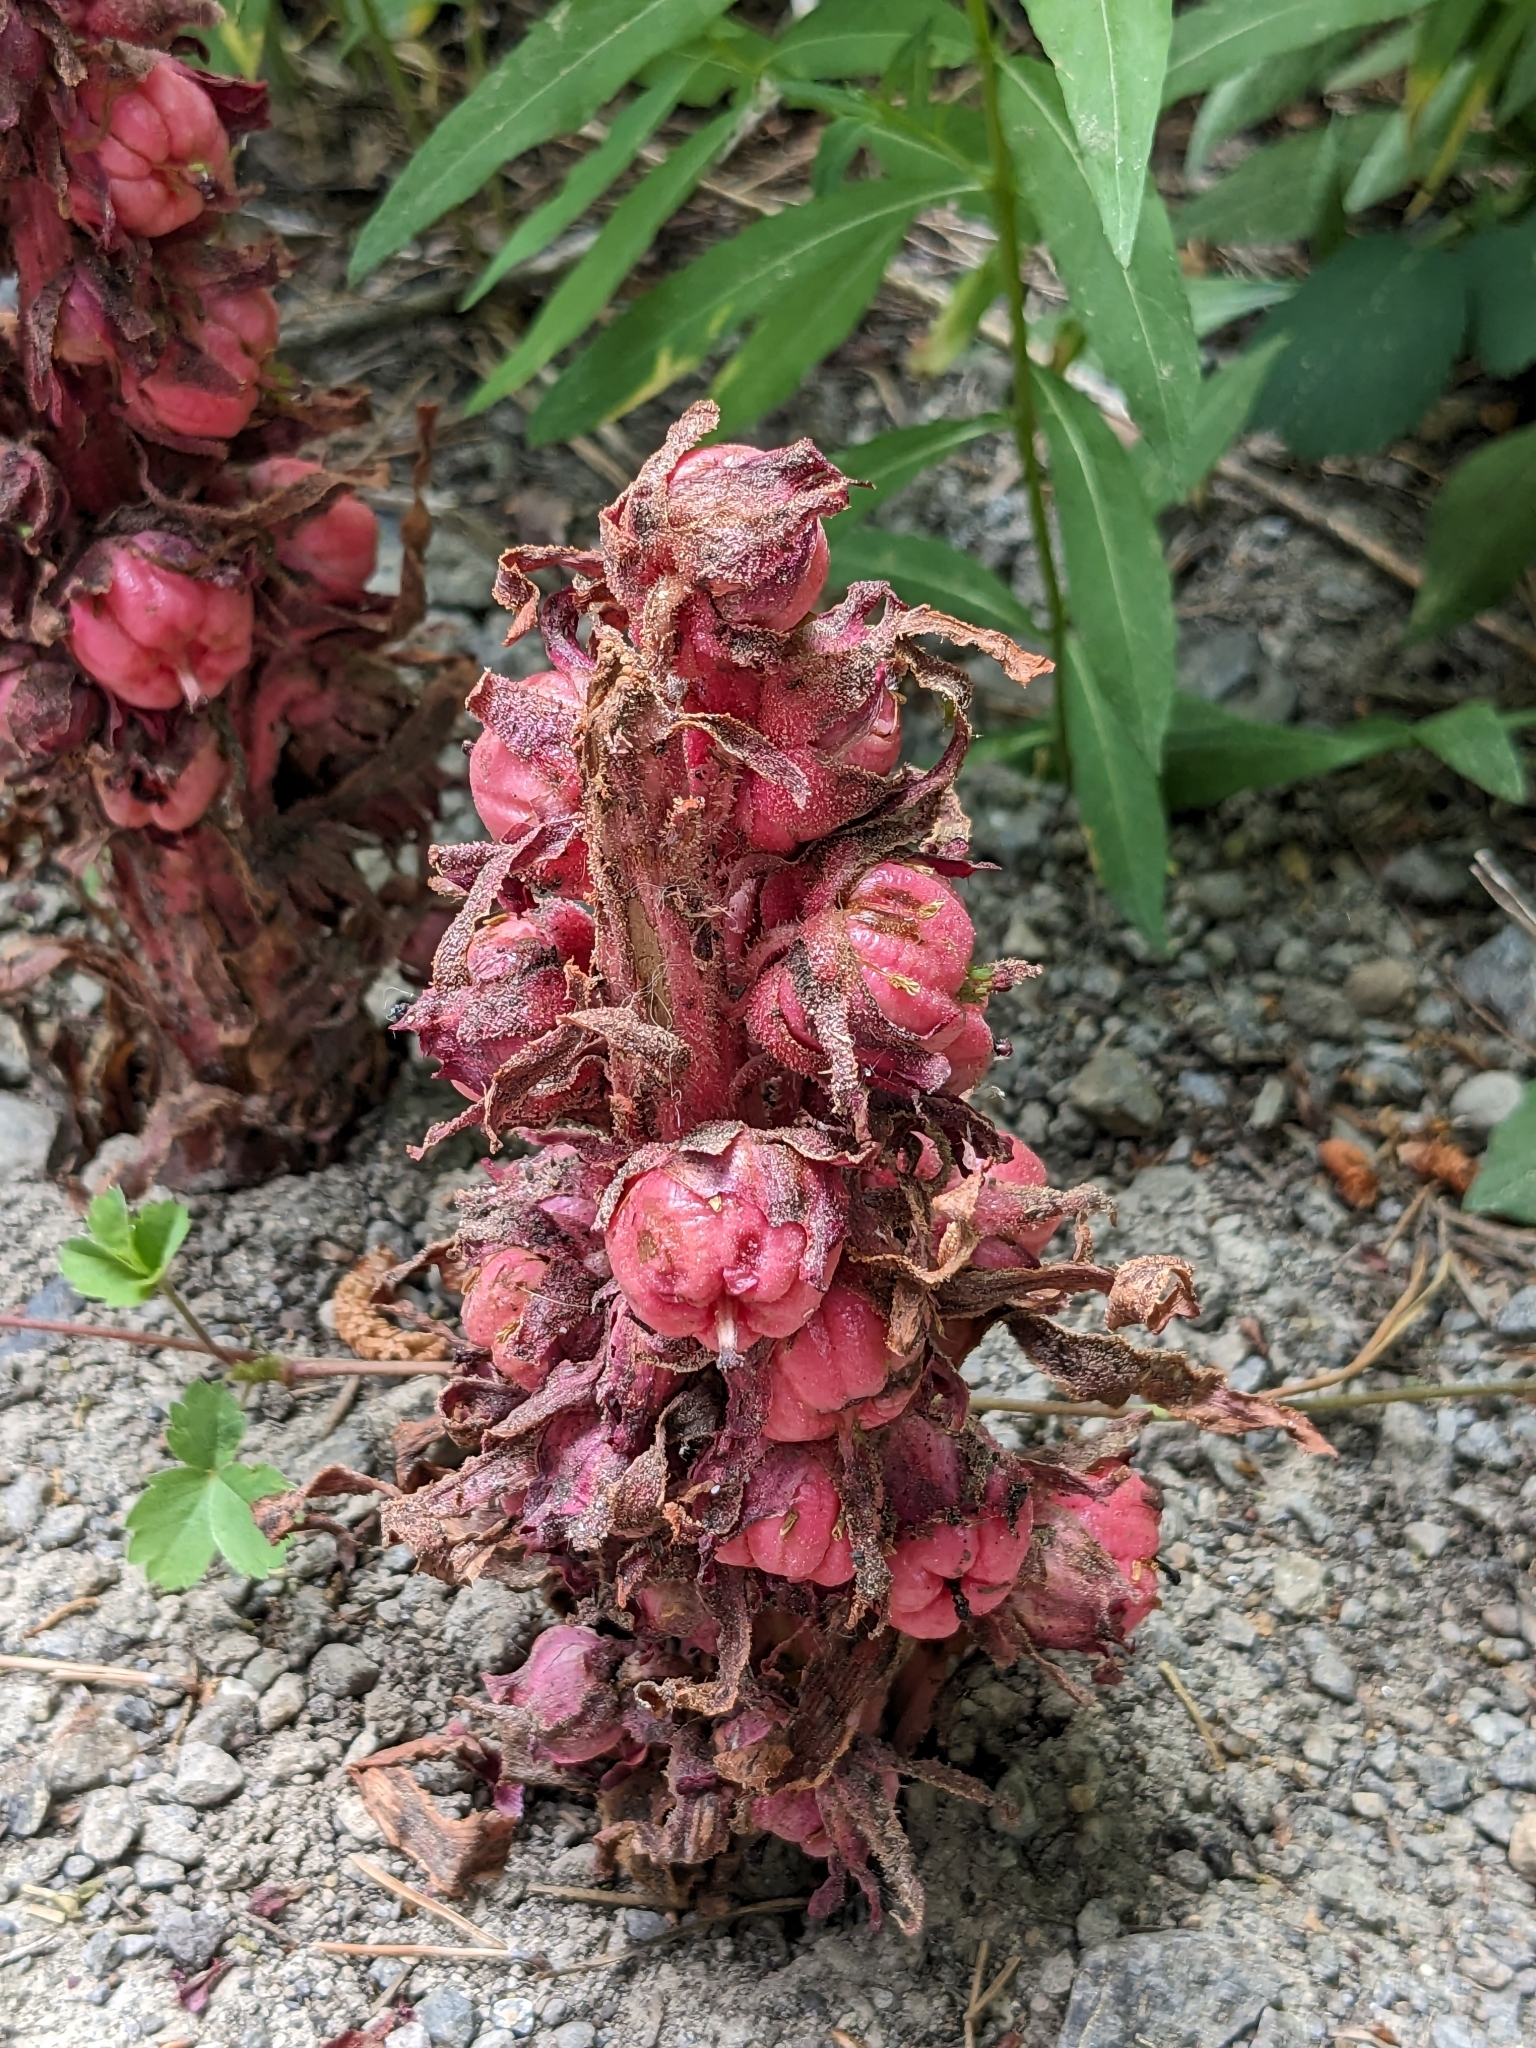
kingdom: Plantae
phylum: Tracheophyta
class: Magnoliopsida
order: Ericales
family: Ericaceae
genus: Sarcodes
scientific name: Sarcodes sanguinea
